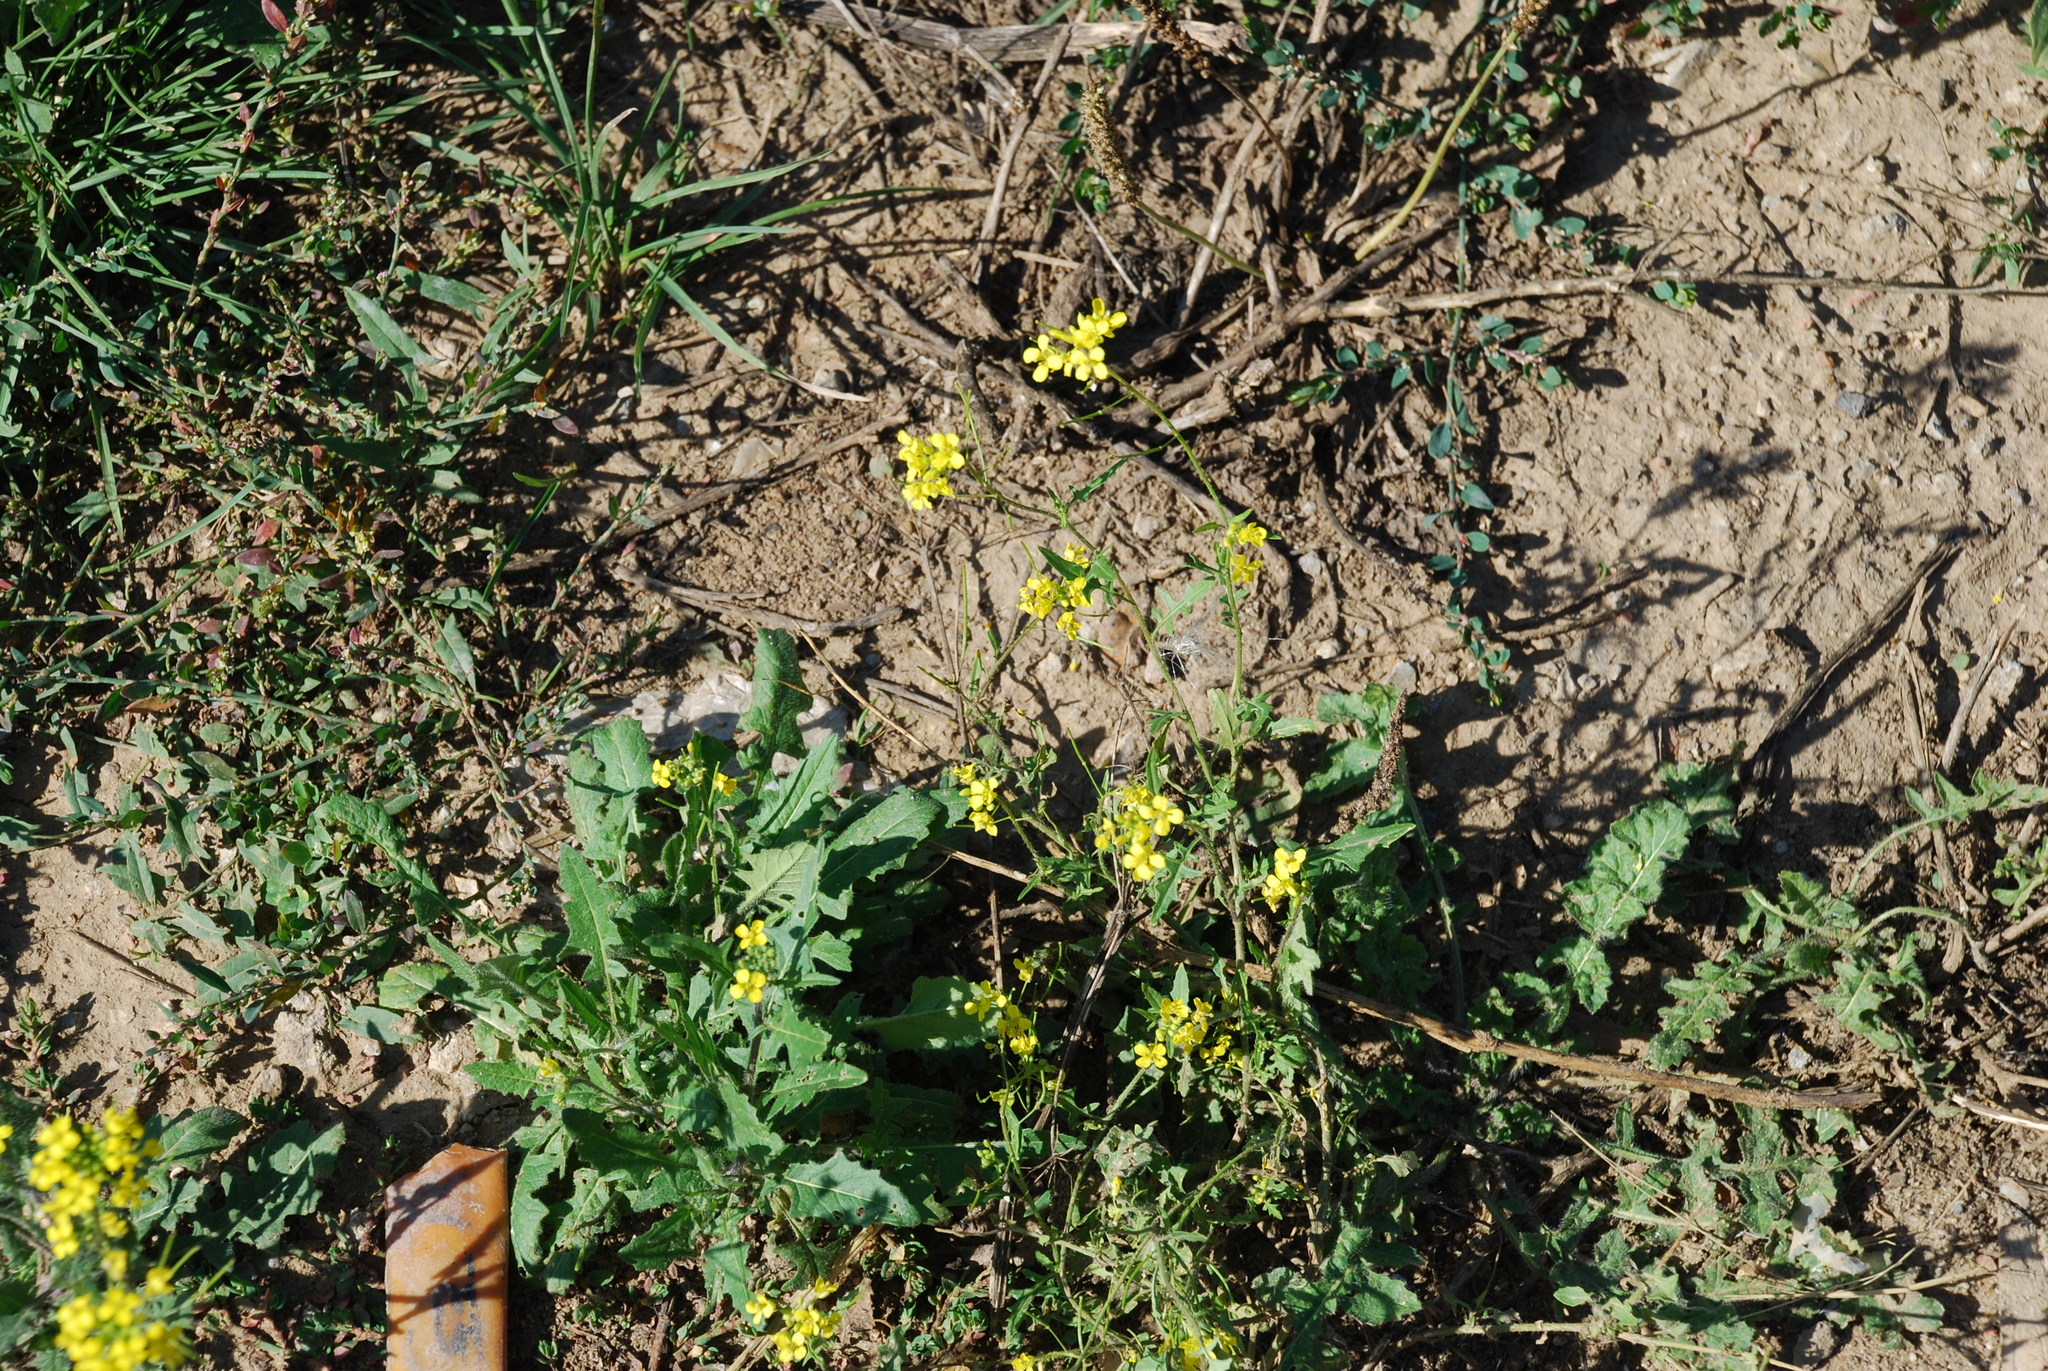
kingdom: Plantae
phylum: Tracheophyta
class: Magnoliopsida
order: Brassicales
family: Brassicaceae
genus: Sisymbrium
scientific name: Sisymbrium loeselii
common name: False london-rocket
